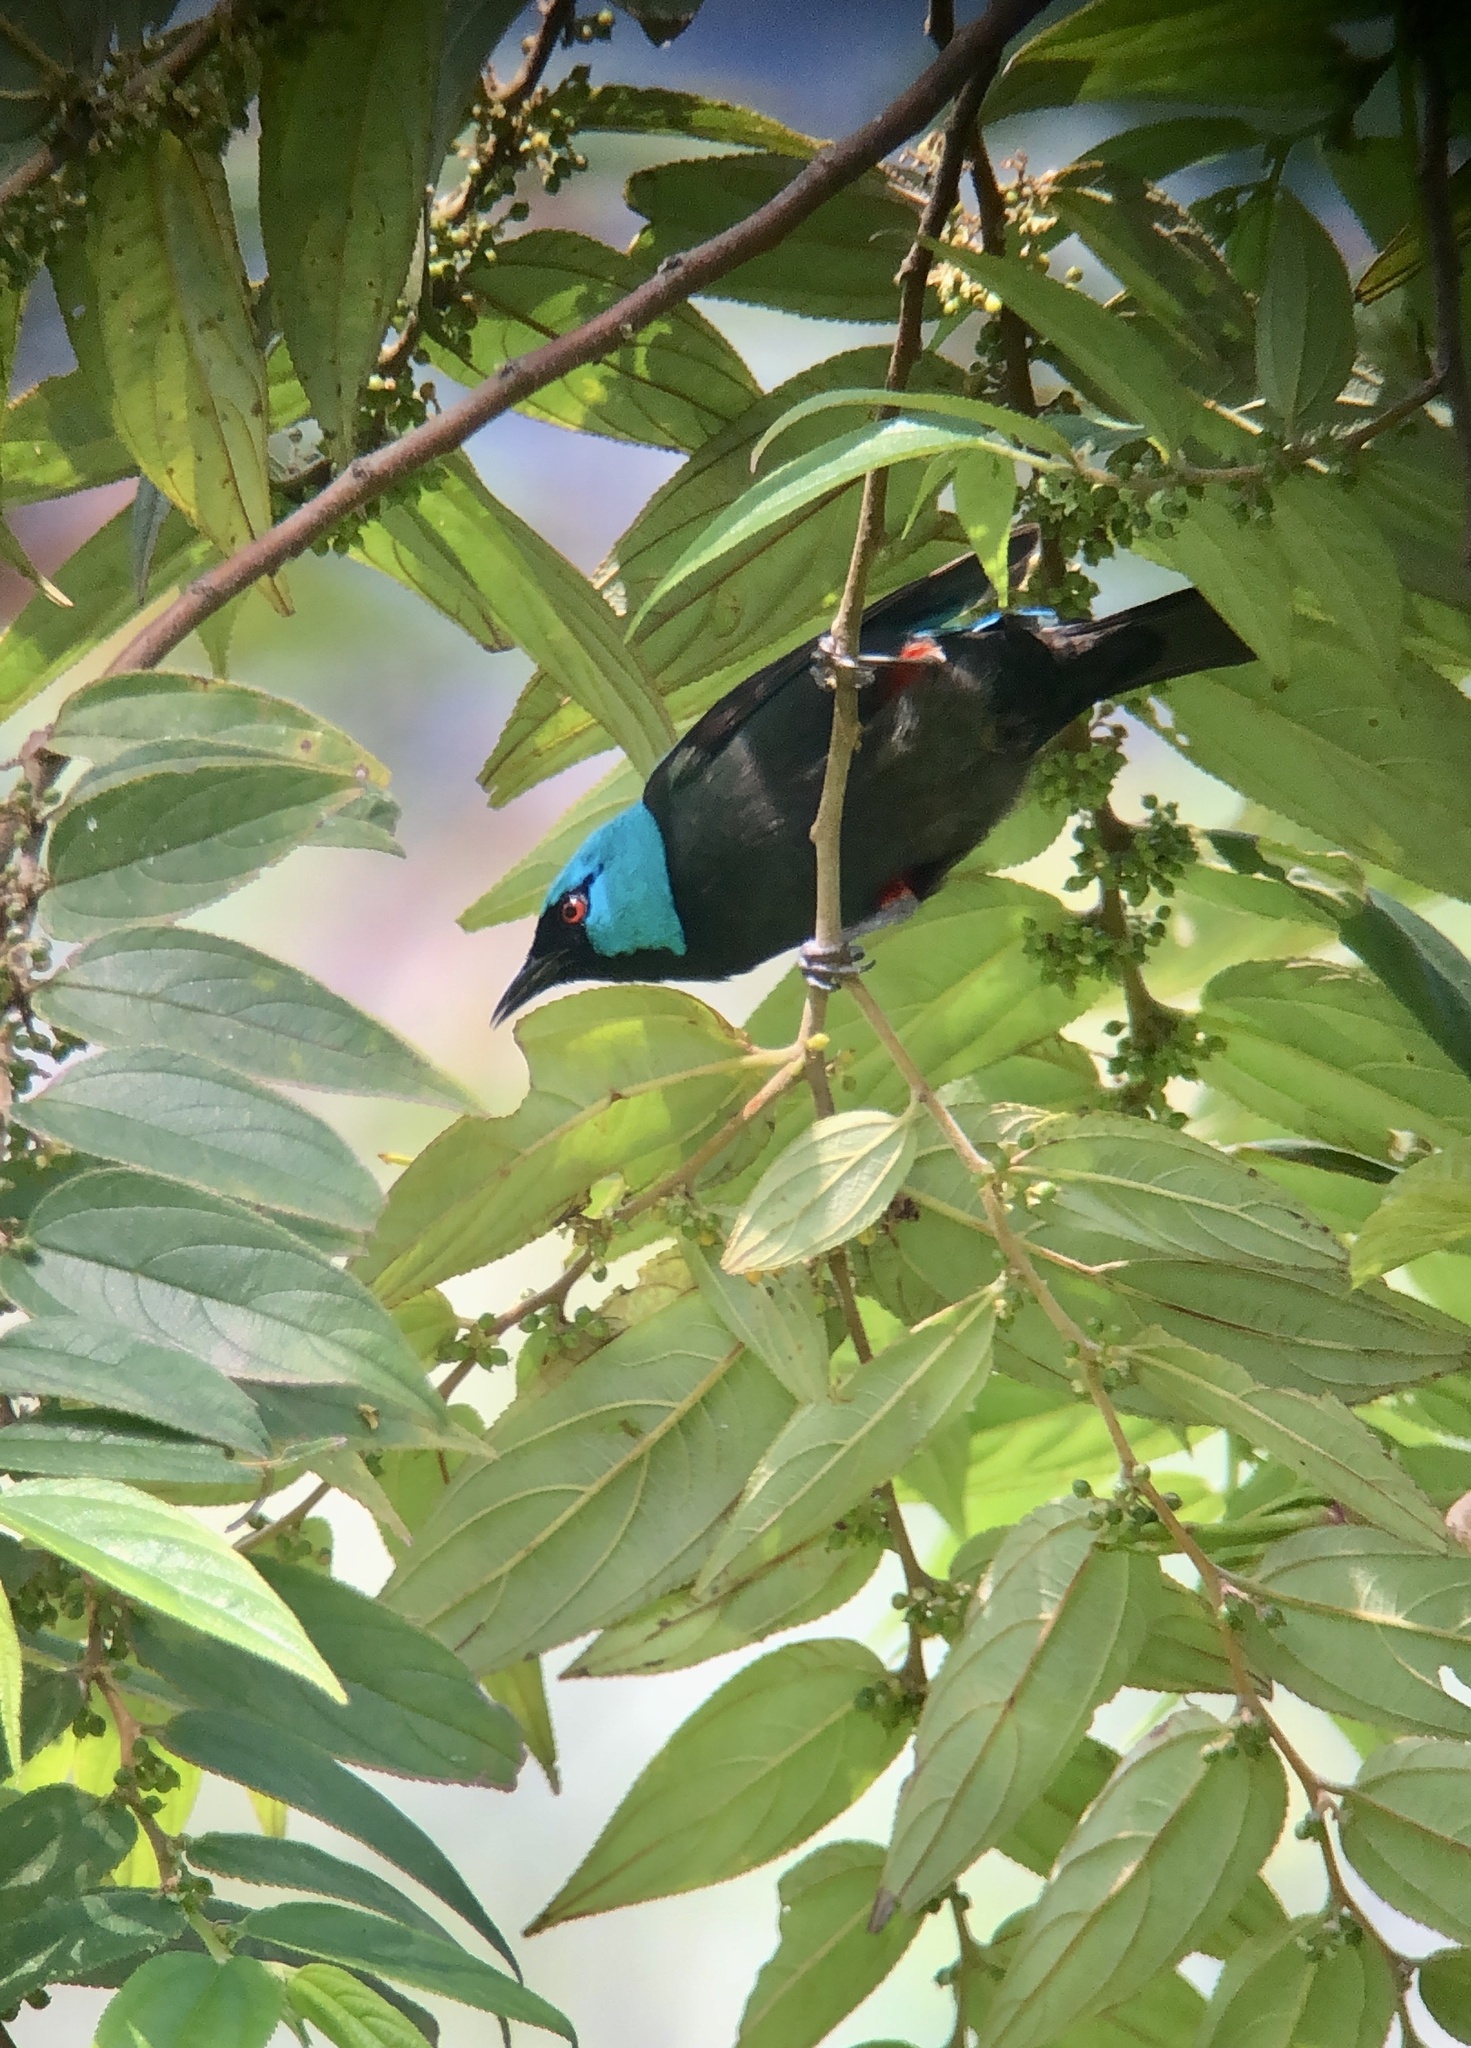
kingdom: Animalia
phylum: Chordata
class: Aves
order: Passeriformes
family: Thraupidae
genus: Dacnis
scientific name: Dacnis venusta
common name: Scarlet-thighed dacnis
